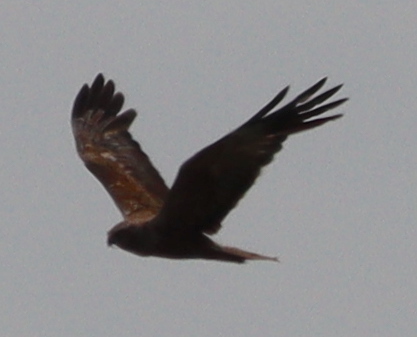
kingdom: Animalia
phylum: Chordata
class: Aves
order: Accipitriformes
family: Accipitridae
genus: Circus
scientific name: Circus aeruginosus
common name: Western marsh harrier
